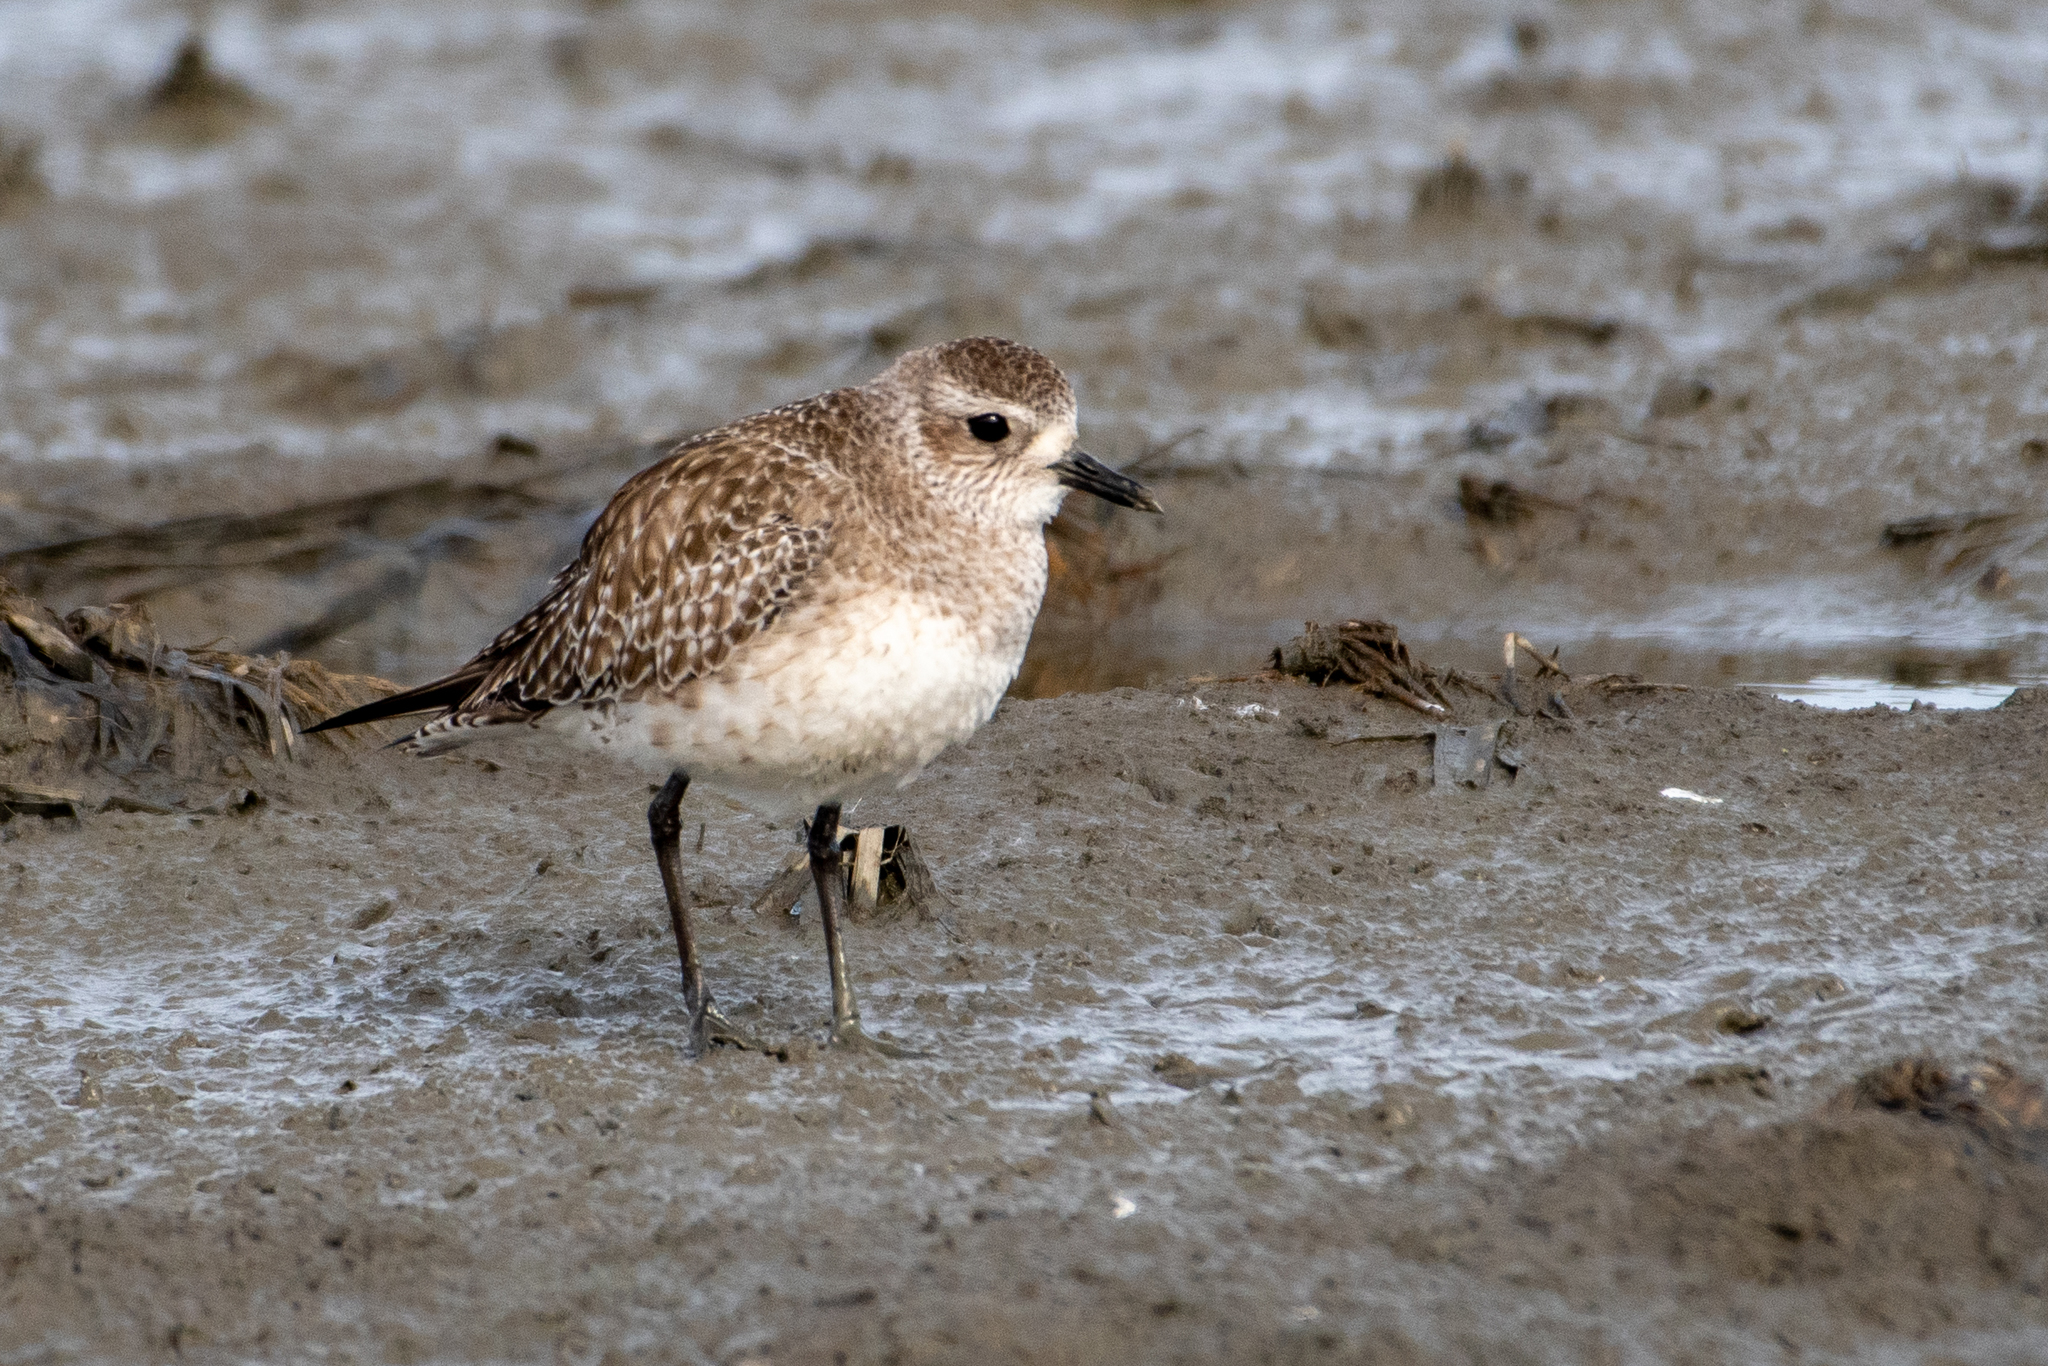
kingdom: Animalia
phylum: Chordata
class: Aves
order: Charadriiformes
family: Charadriidae
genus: Pluvialis
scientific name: Pluvialis squatarola
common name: Grey plover
